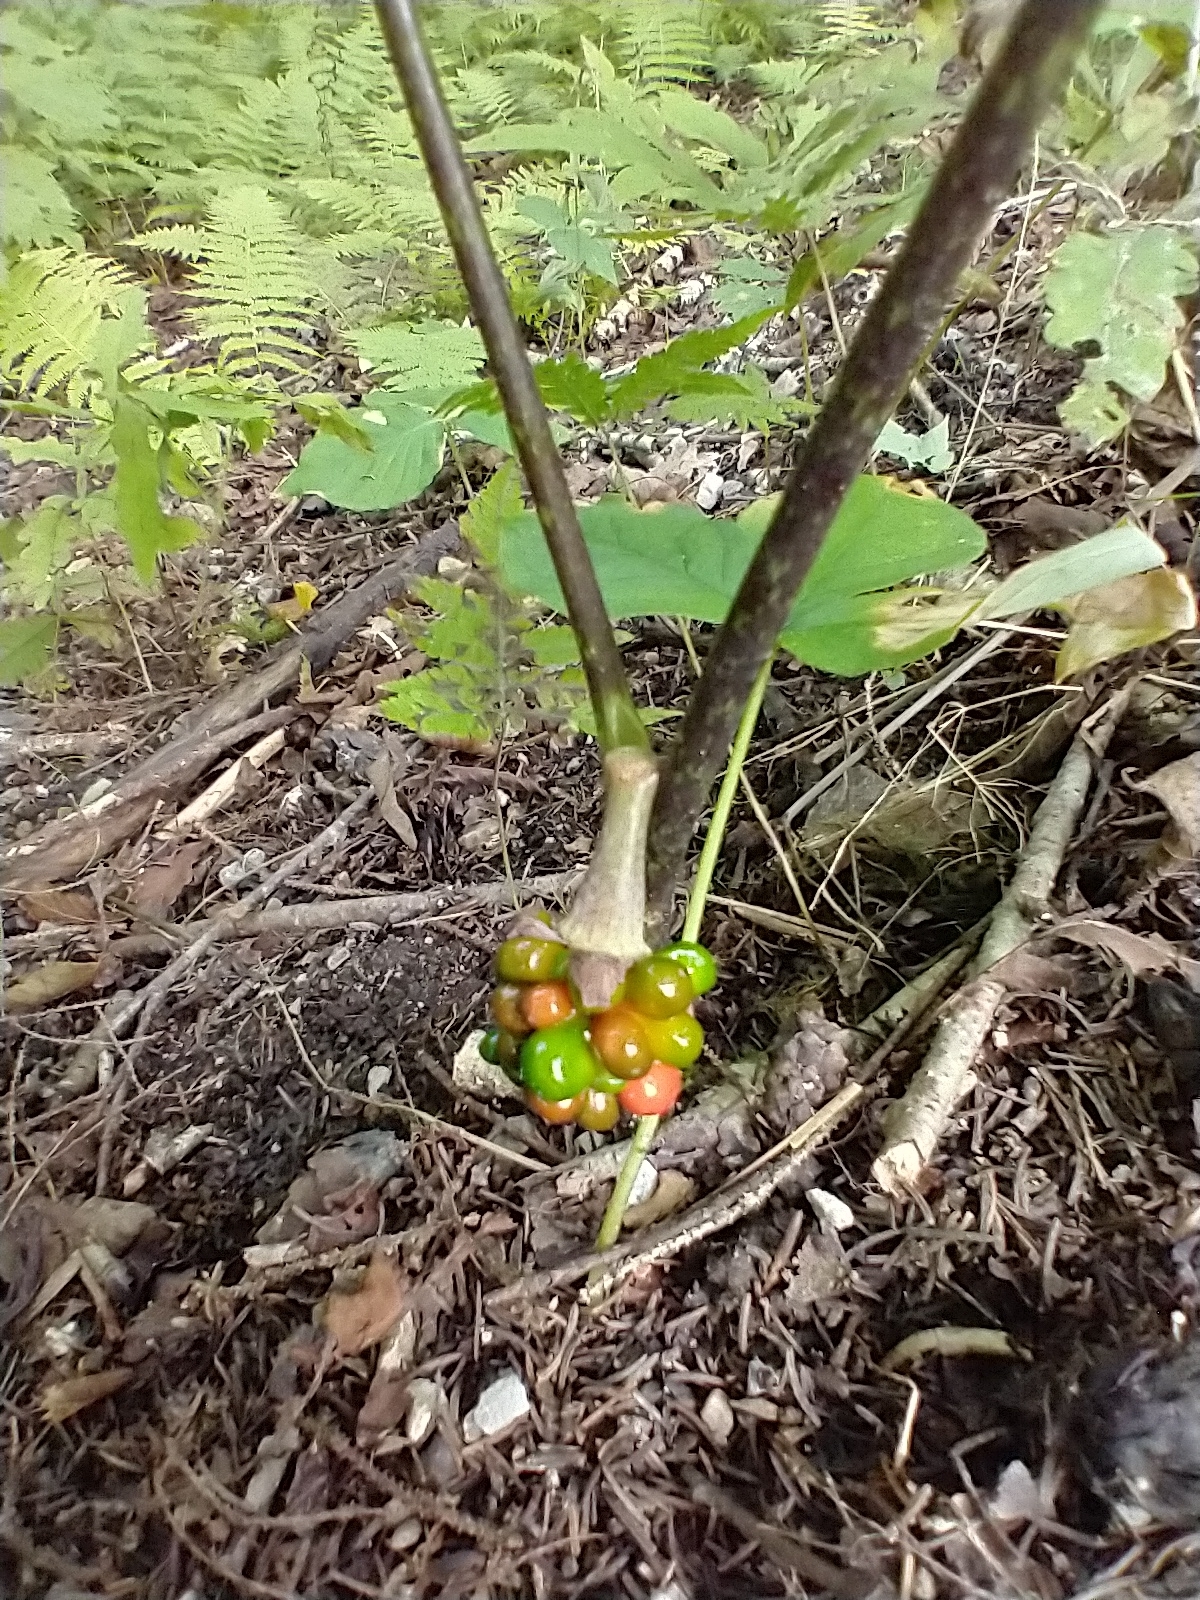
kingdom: Plantae
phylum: Tracheophyta
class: Liliopsida
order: Alismatales
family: Araceae
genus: Arisaema
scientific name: Arisaema triphyllum
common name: Jack-in-the-pulpit
